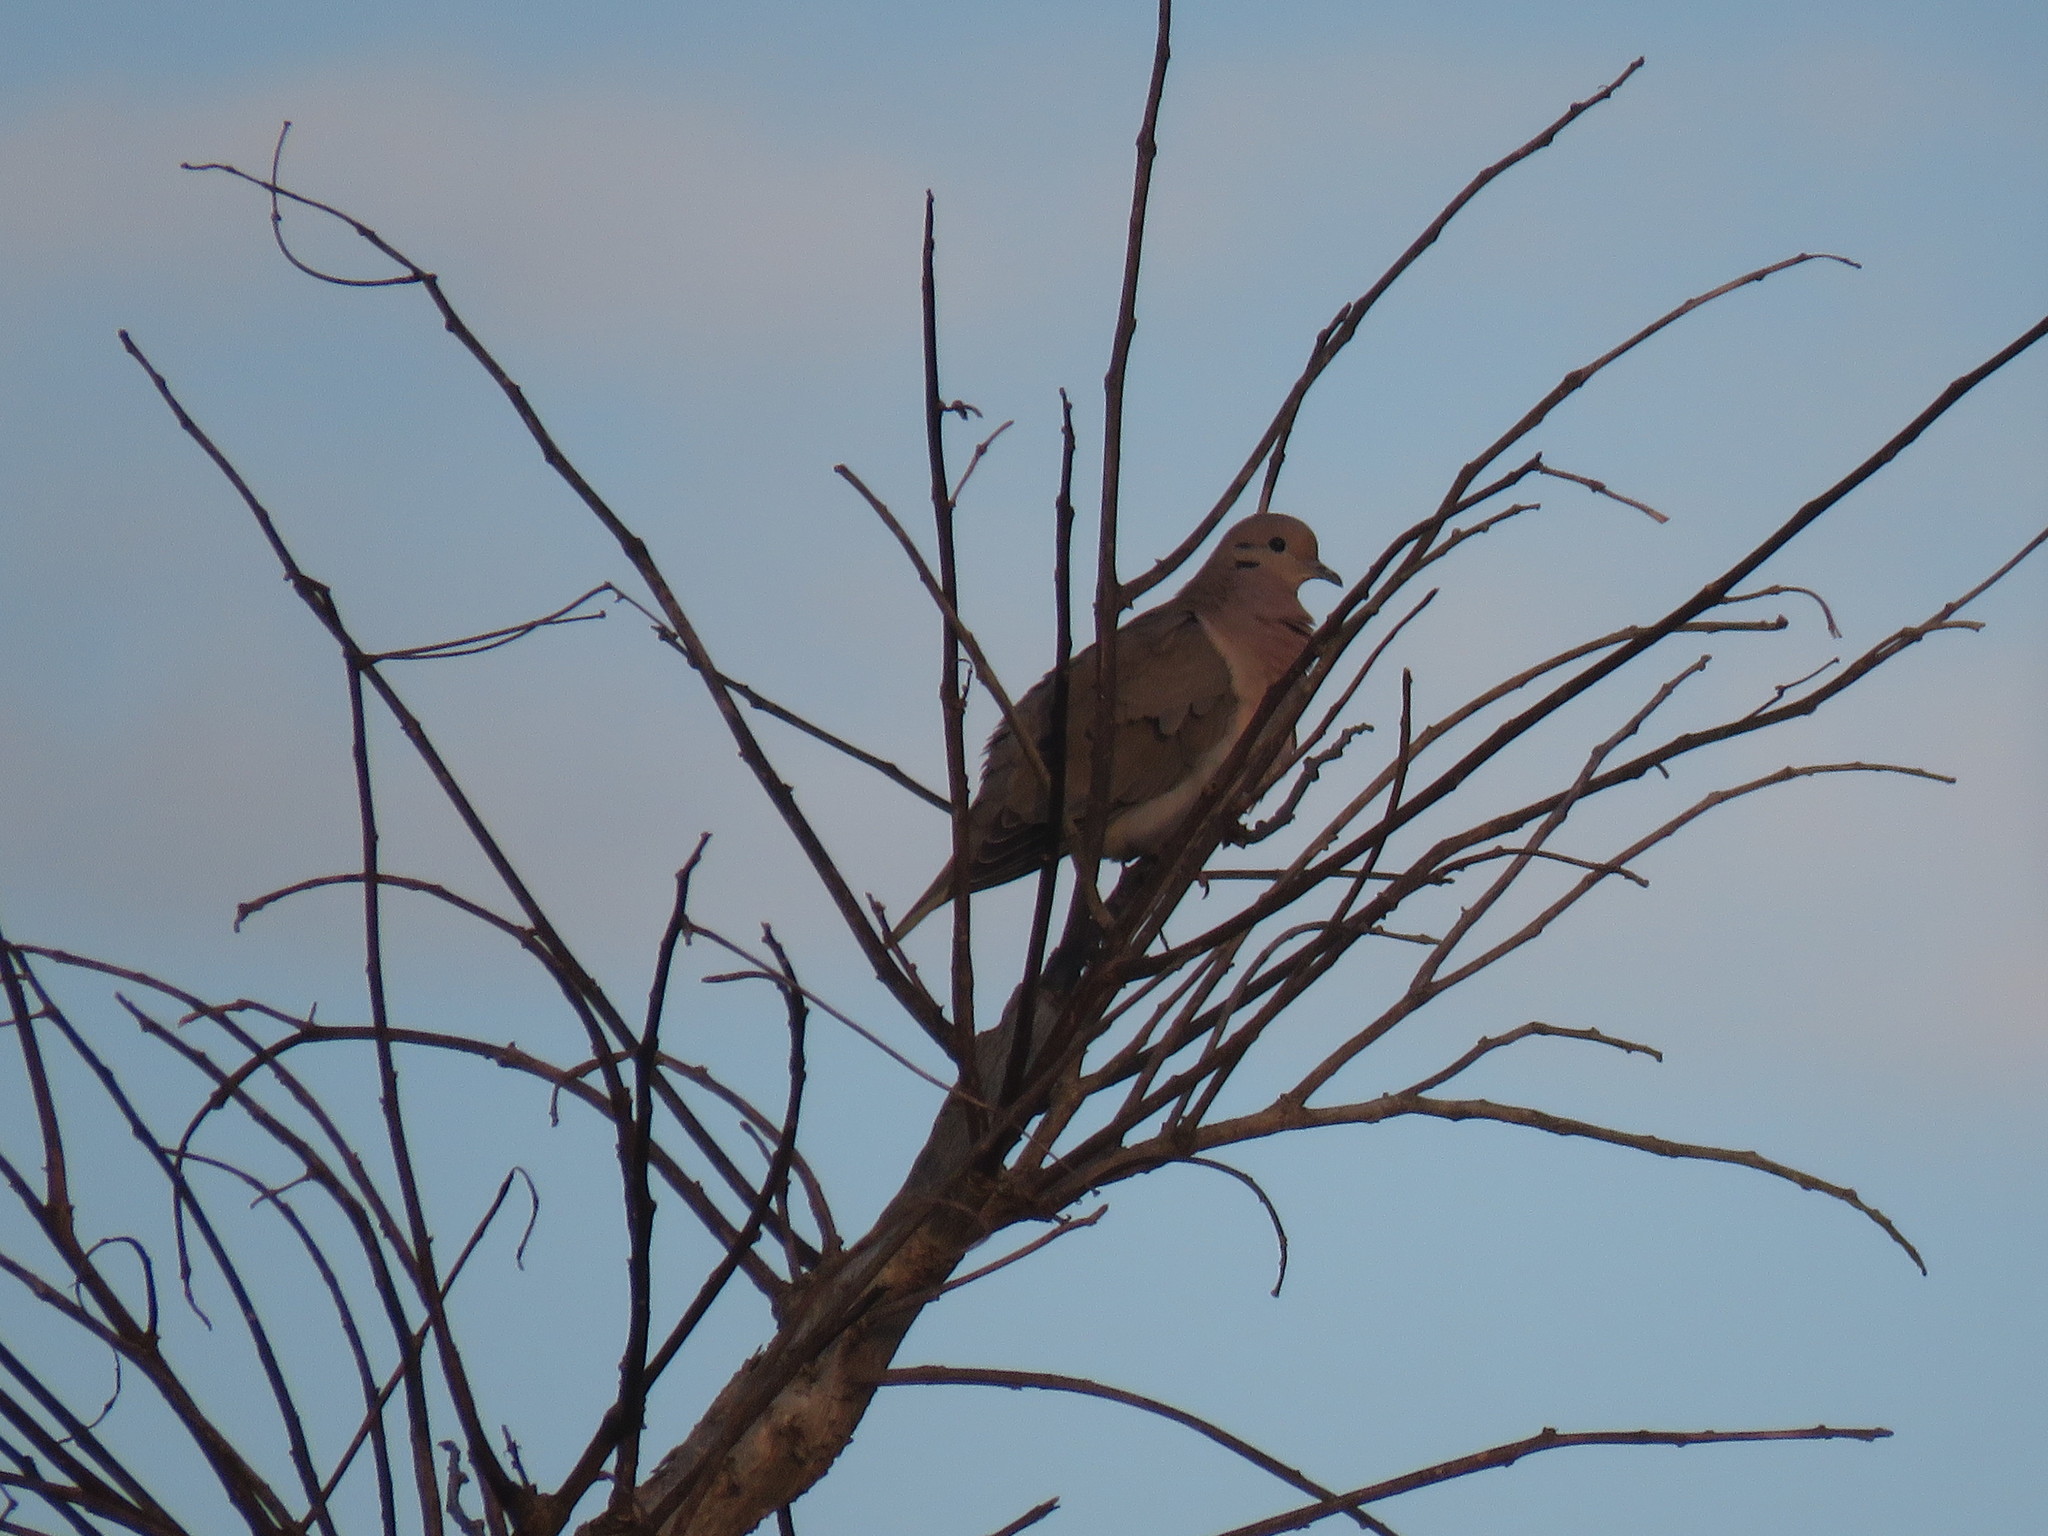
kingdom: Animalia
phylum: Chordata
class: Aves
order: Columbiformes
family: Columbidae
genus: Zenaida
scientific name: Zenaida auriculata
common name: Eared dove
